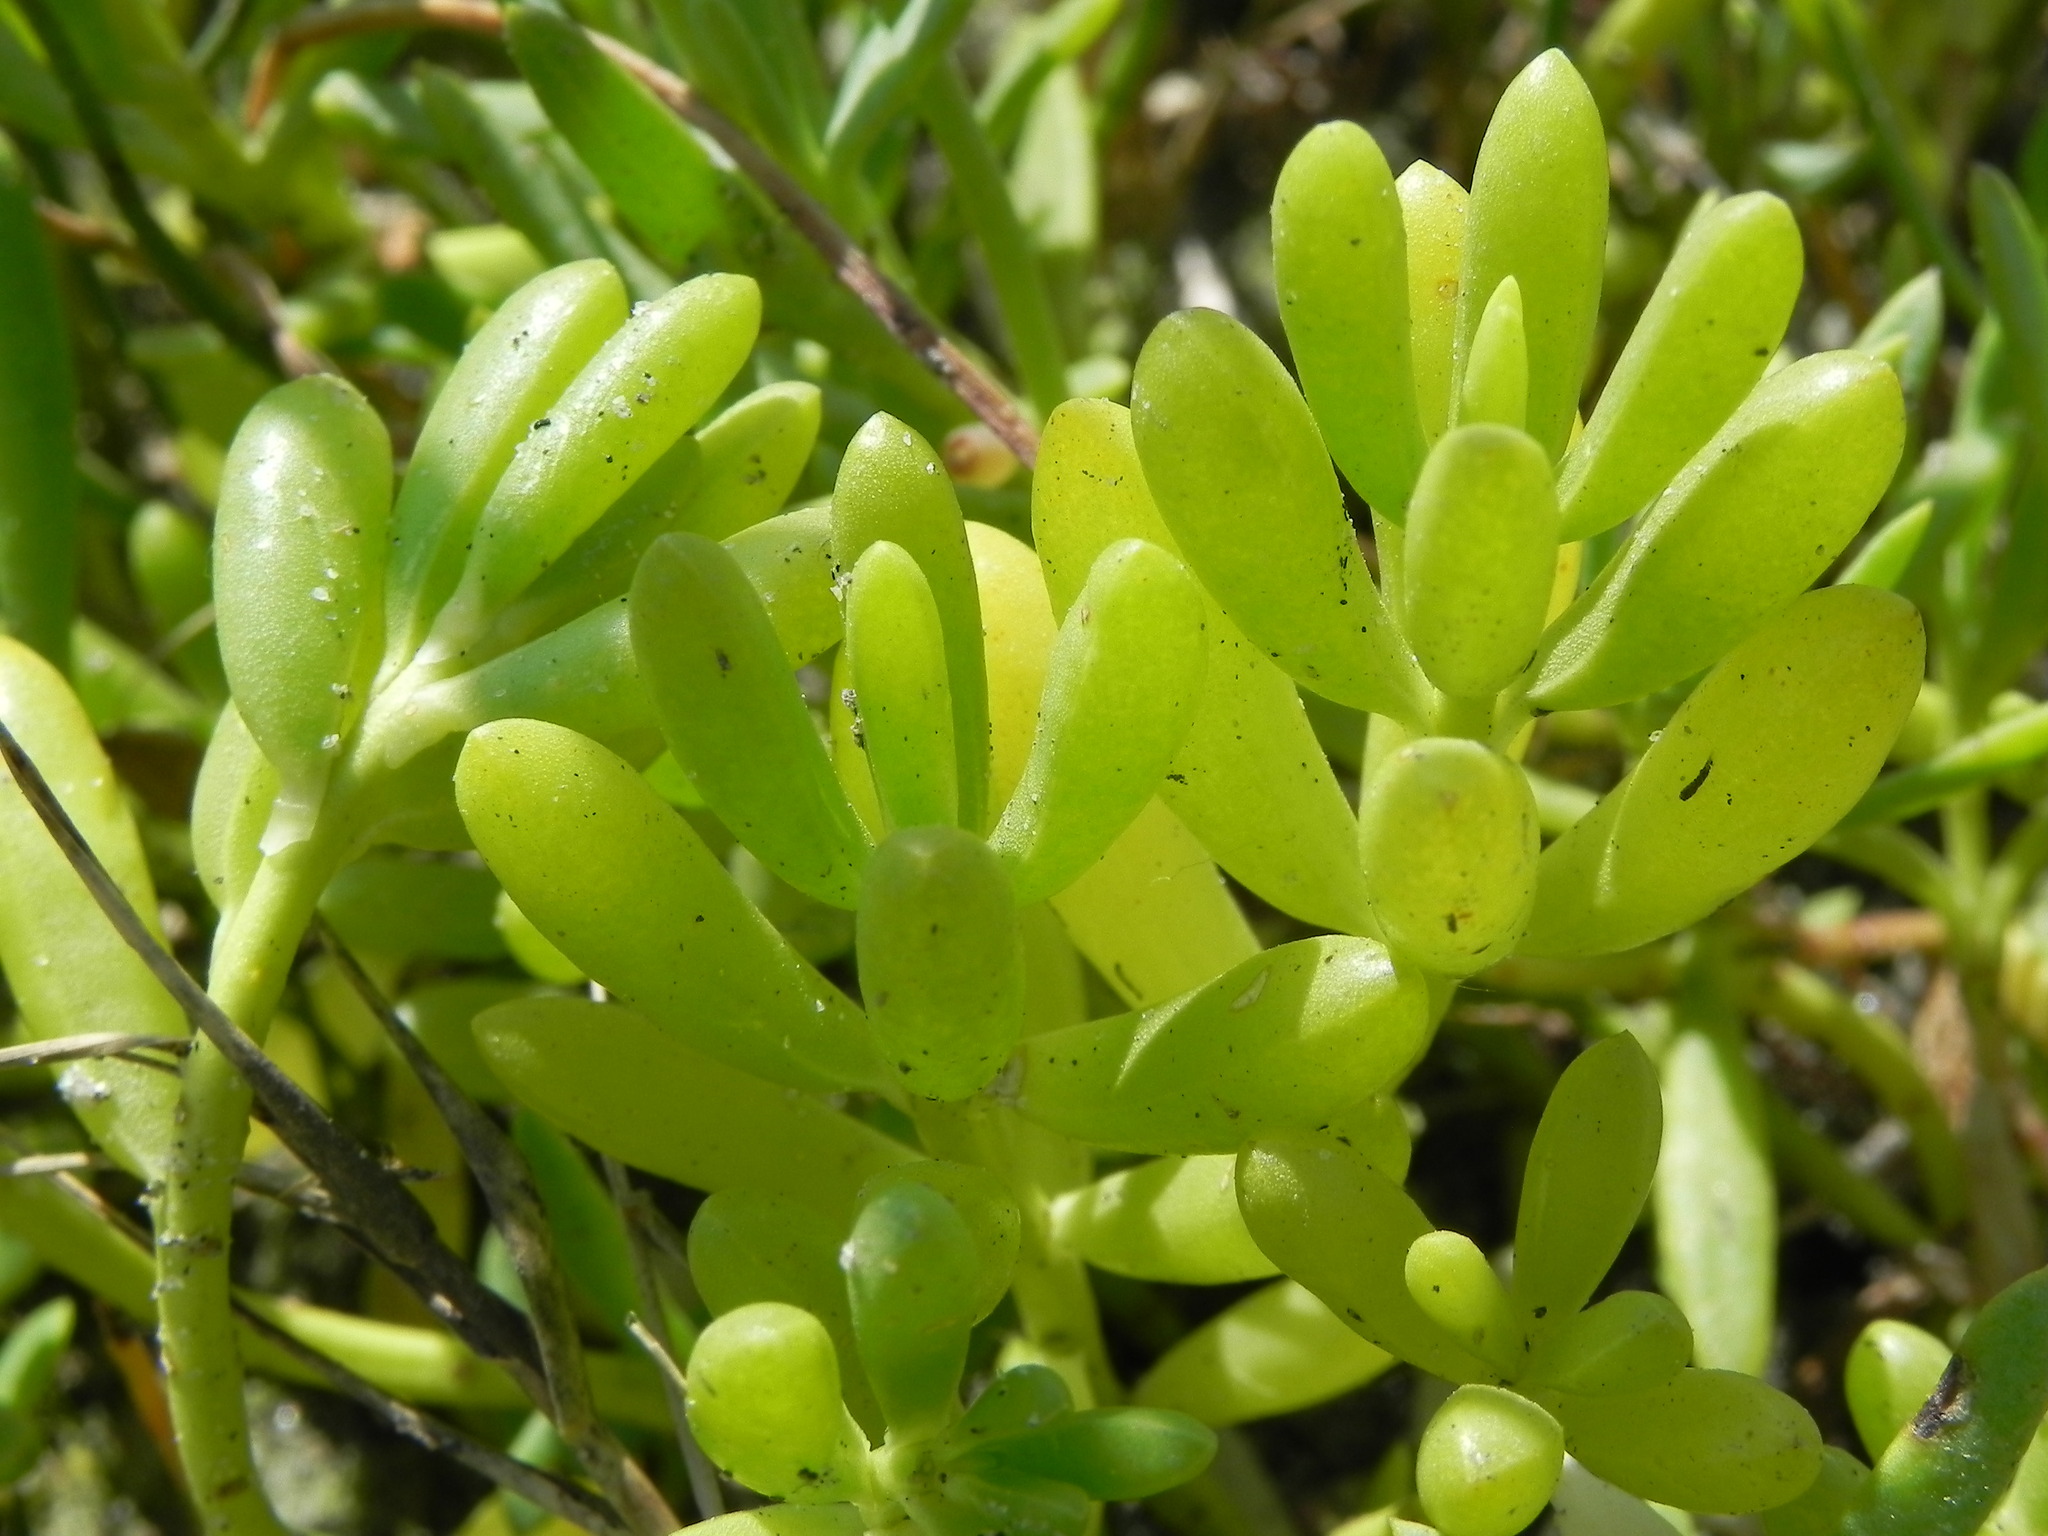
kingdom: Plantae
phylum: Tracheophyta
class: Magnoliopsida
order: Brassicales
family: Bataceae
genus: Batis
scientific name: Batis maritima
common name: Turtleweed
